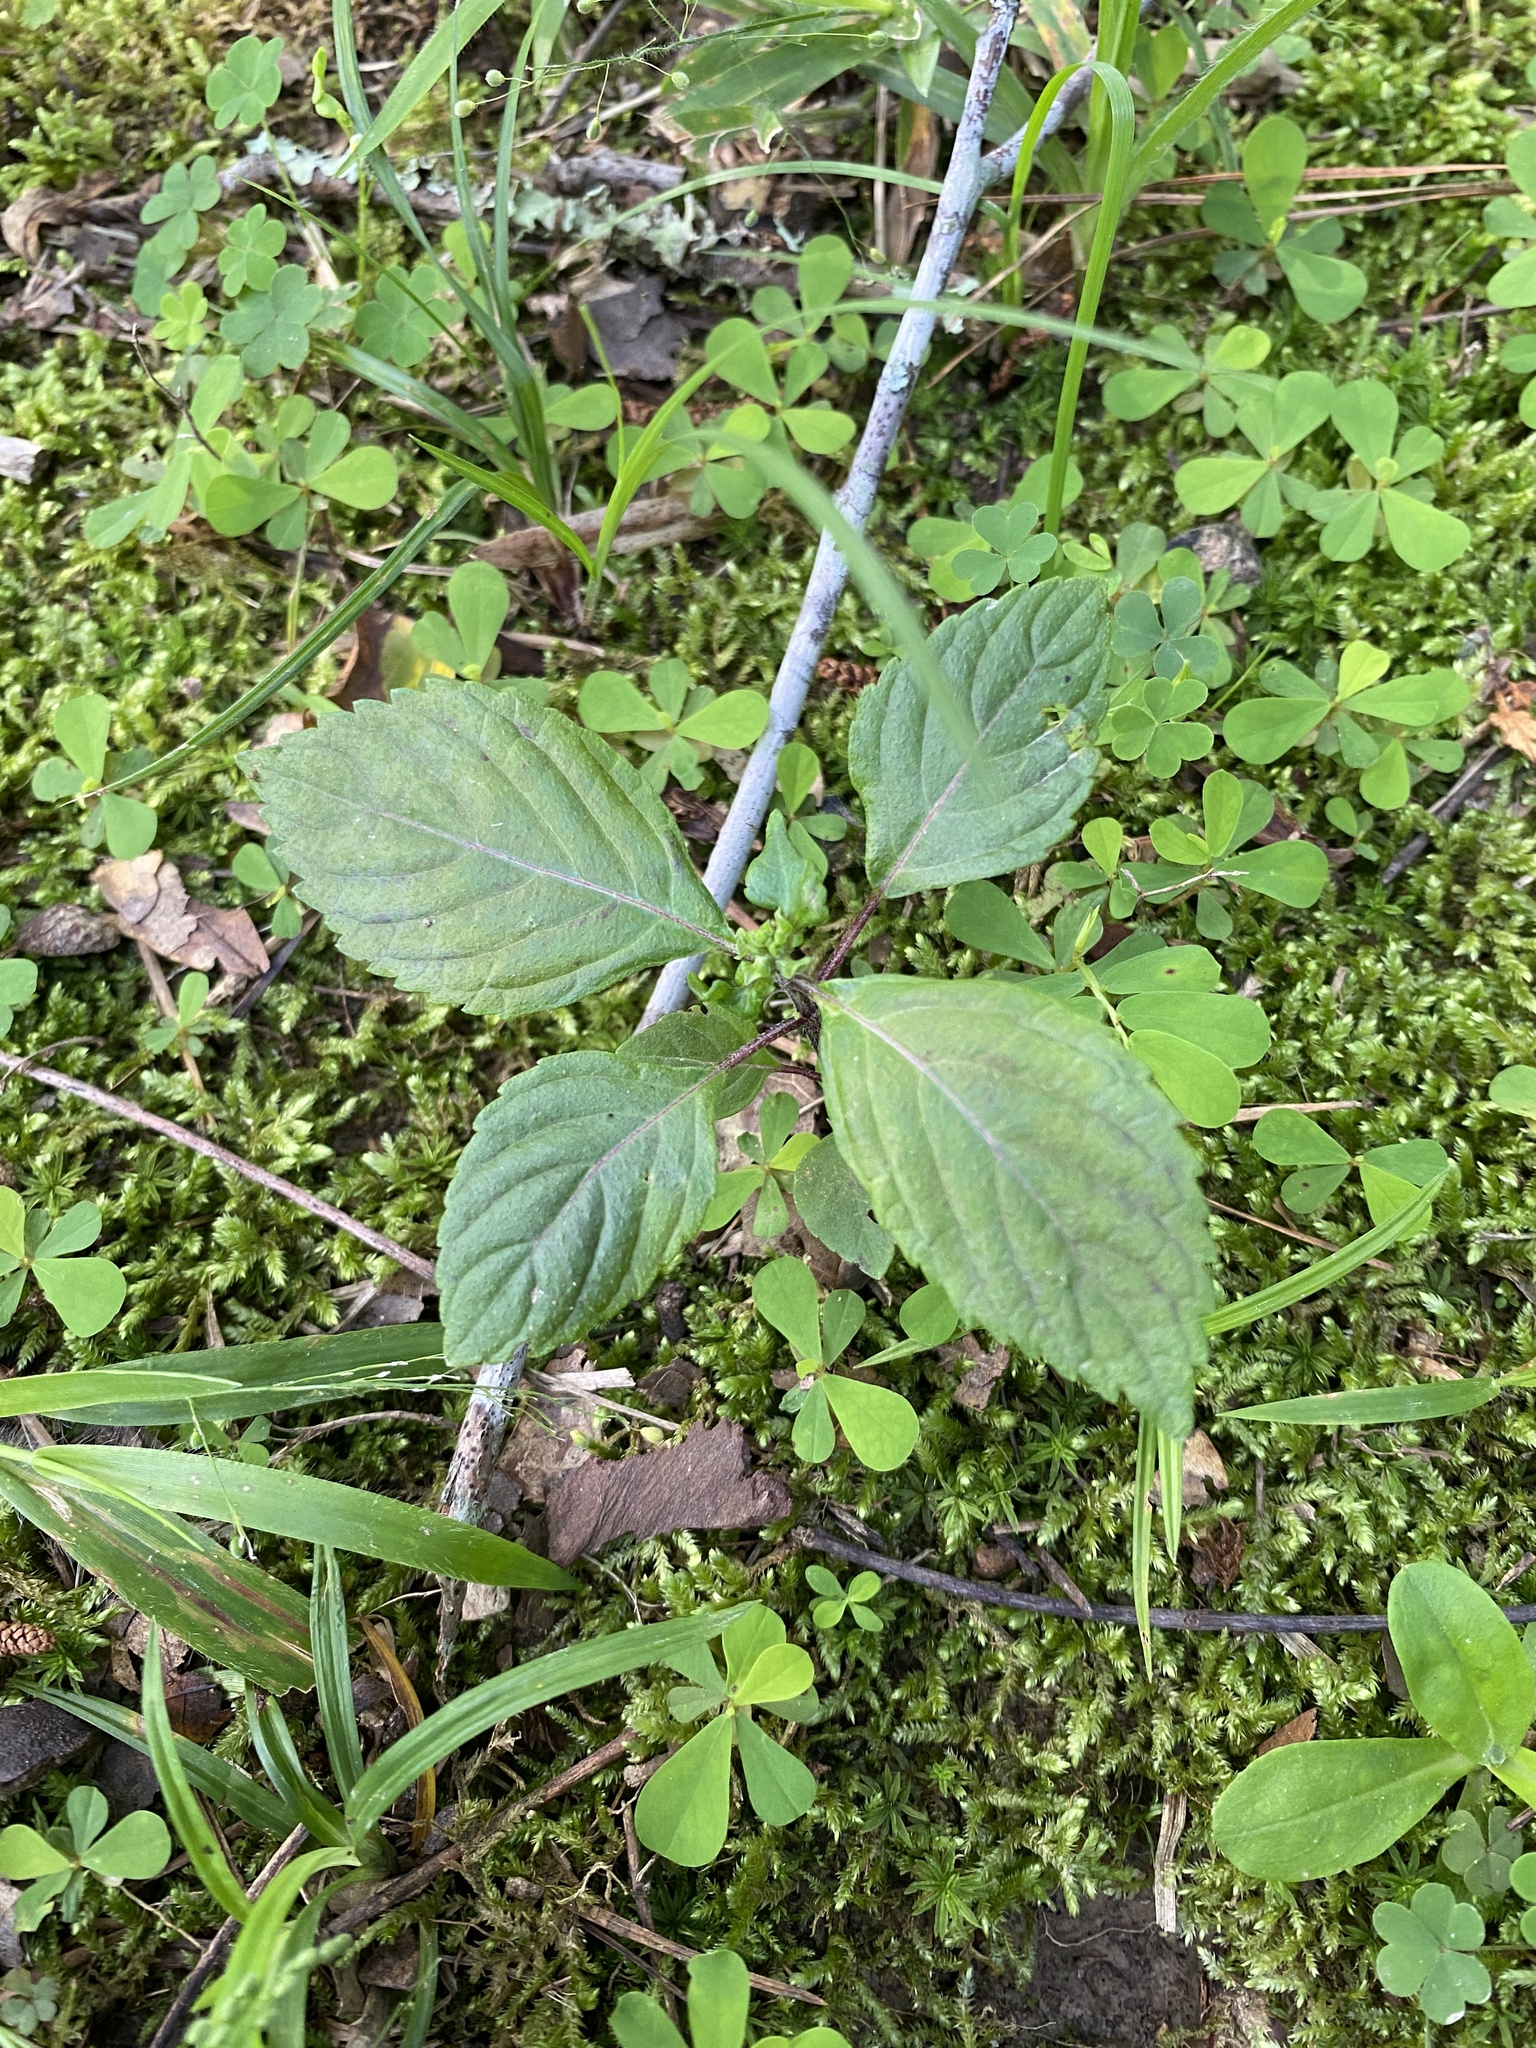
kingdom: Plantae
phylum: Tracheophyta
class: Magnoliopsida
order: Lamiales
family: Lamiaceae
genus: Perilla
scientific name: Perilla frutescens
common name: Perilla
